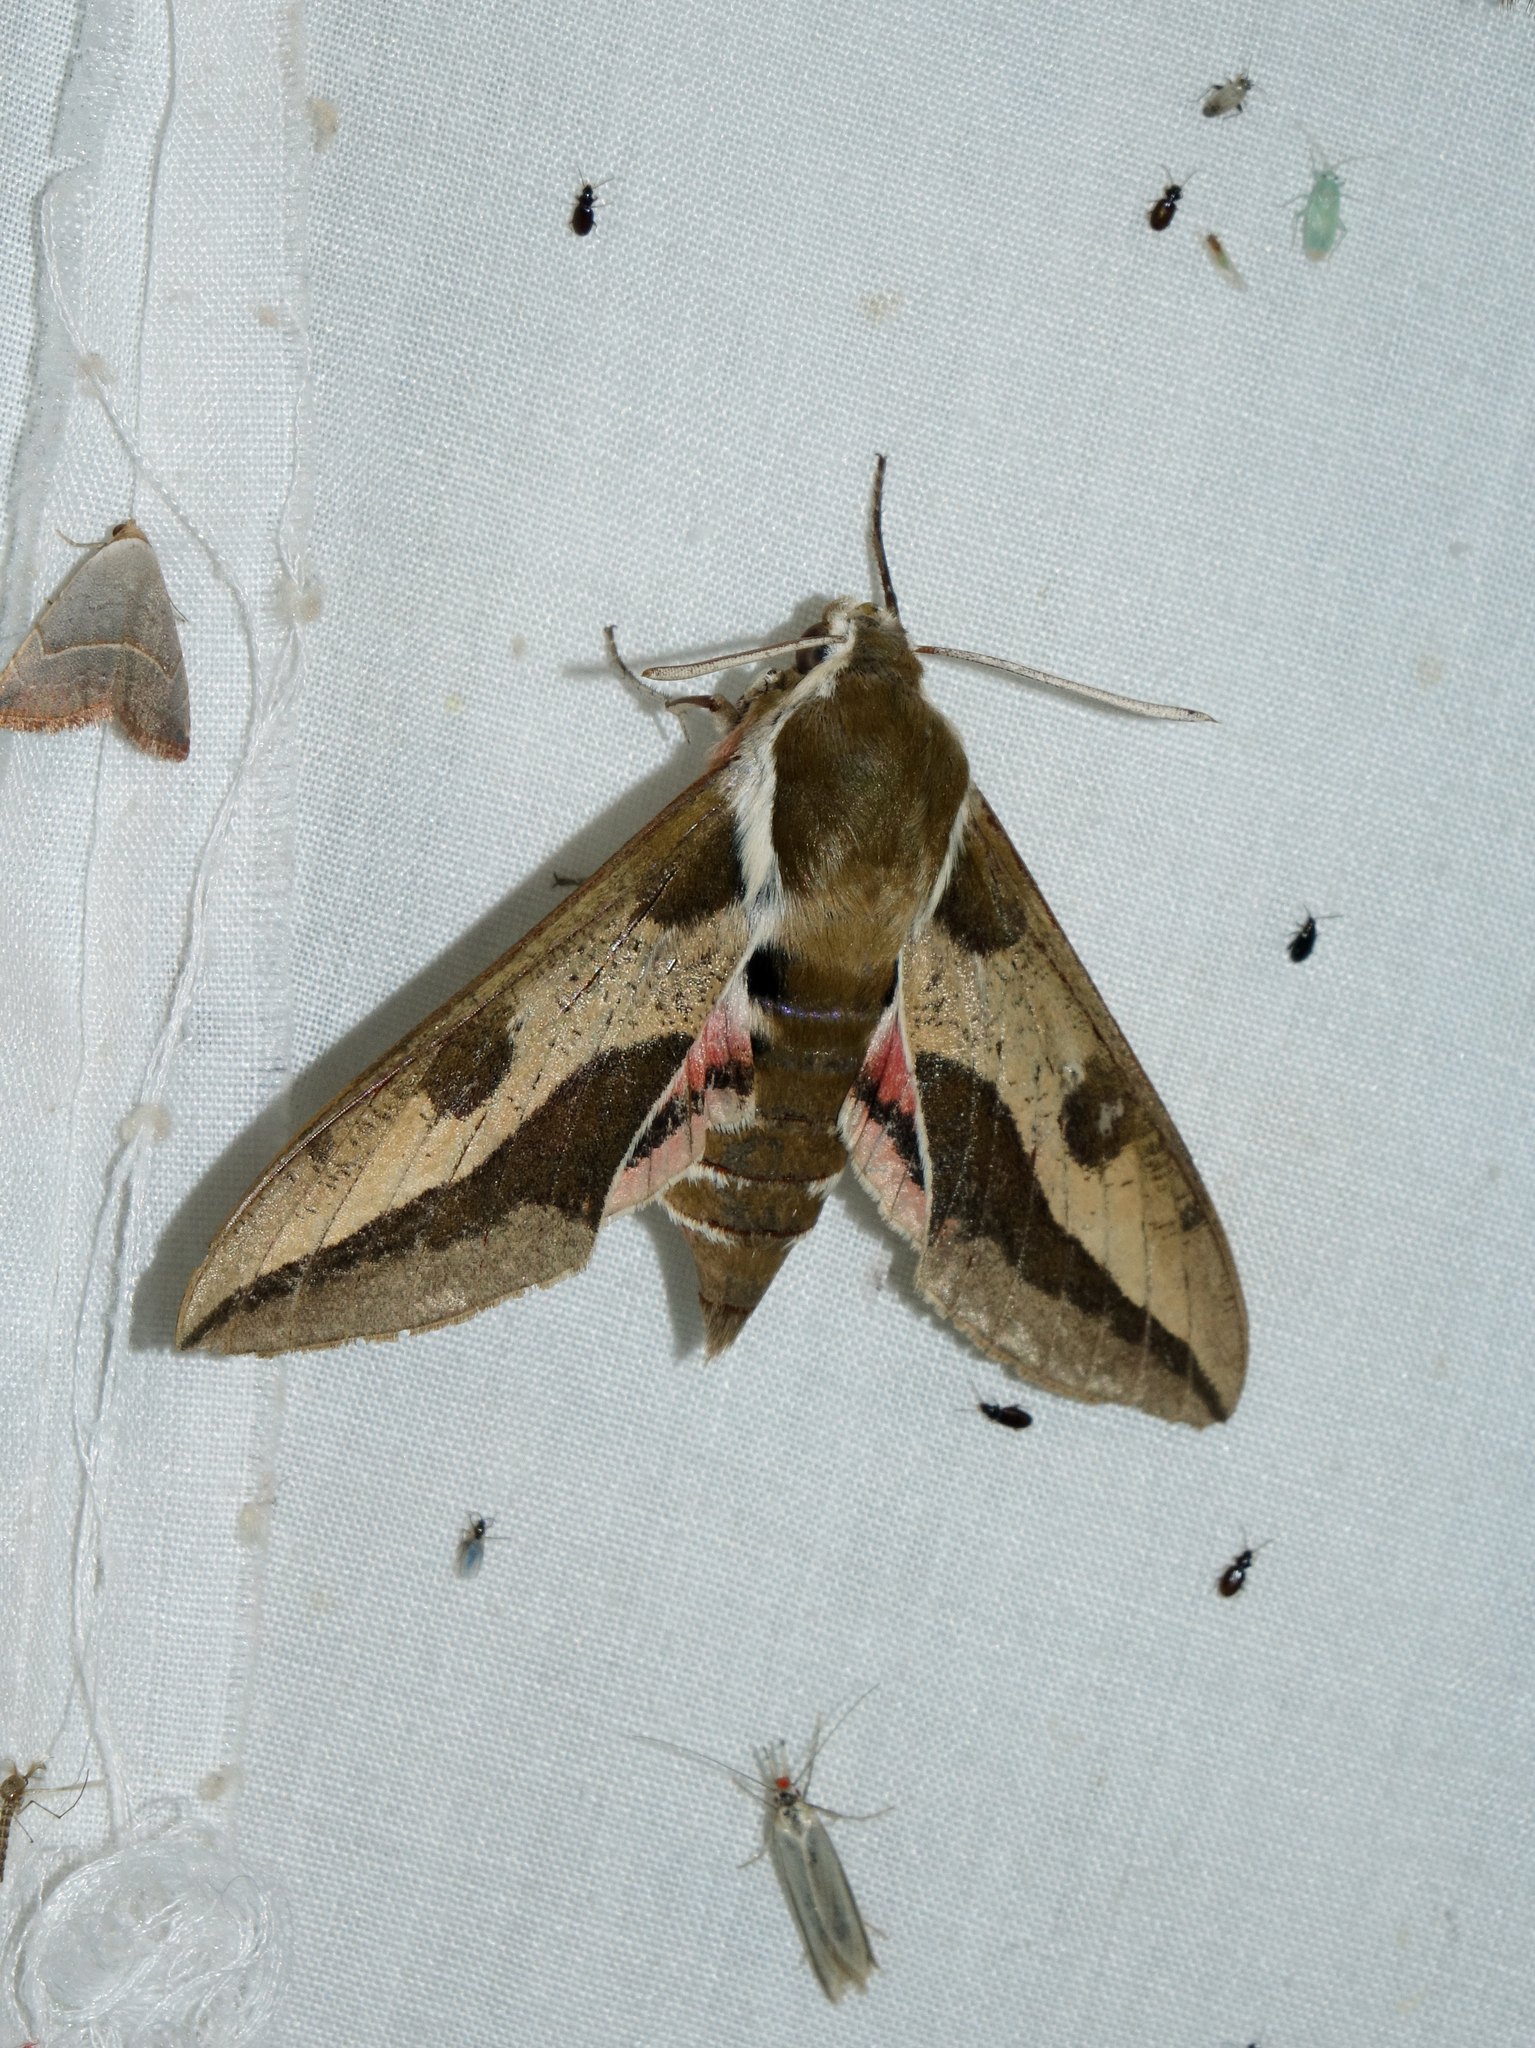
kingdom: Animalia
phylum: Arthropoda
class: Insecta
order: Lepidoptera
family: Sphingidae
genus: Hyles
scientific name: Hyles euphorbiae
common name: Spurge hawk-moth
